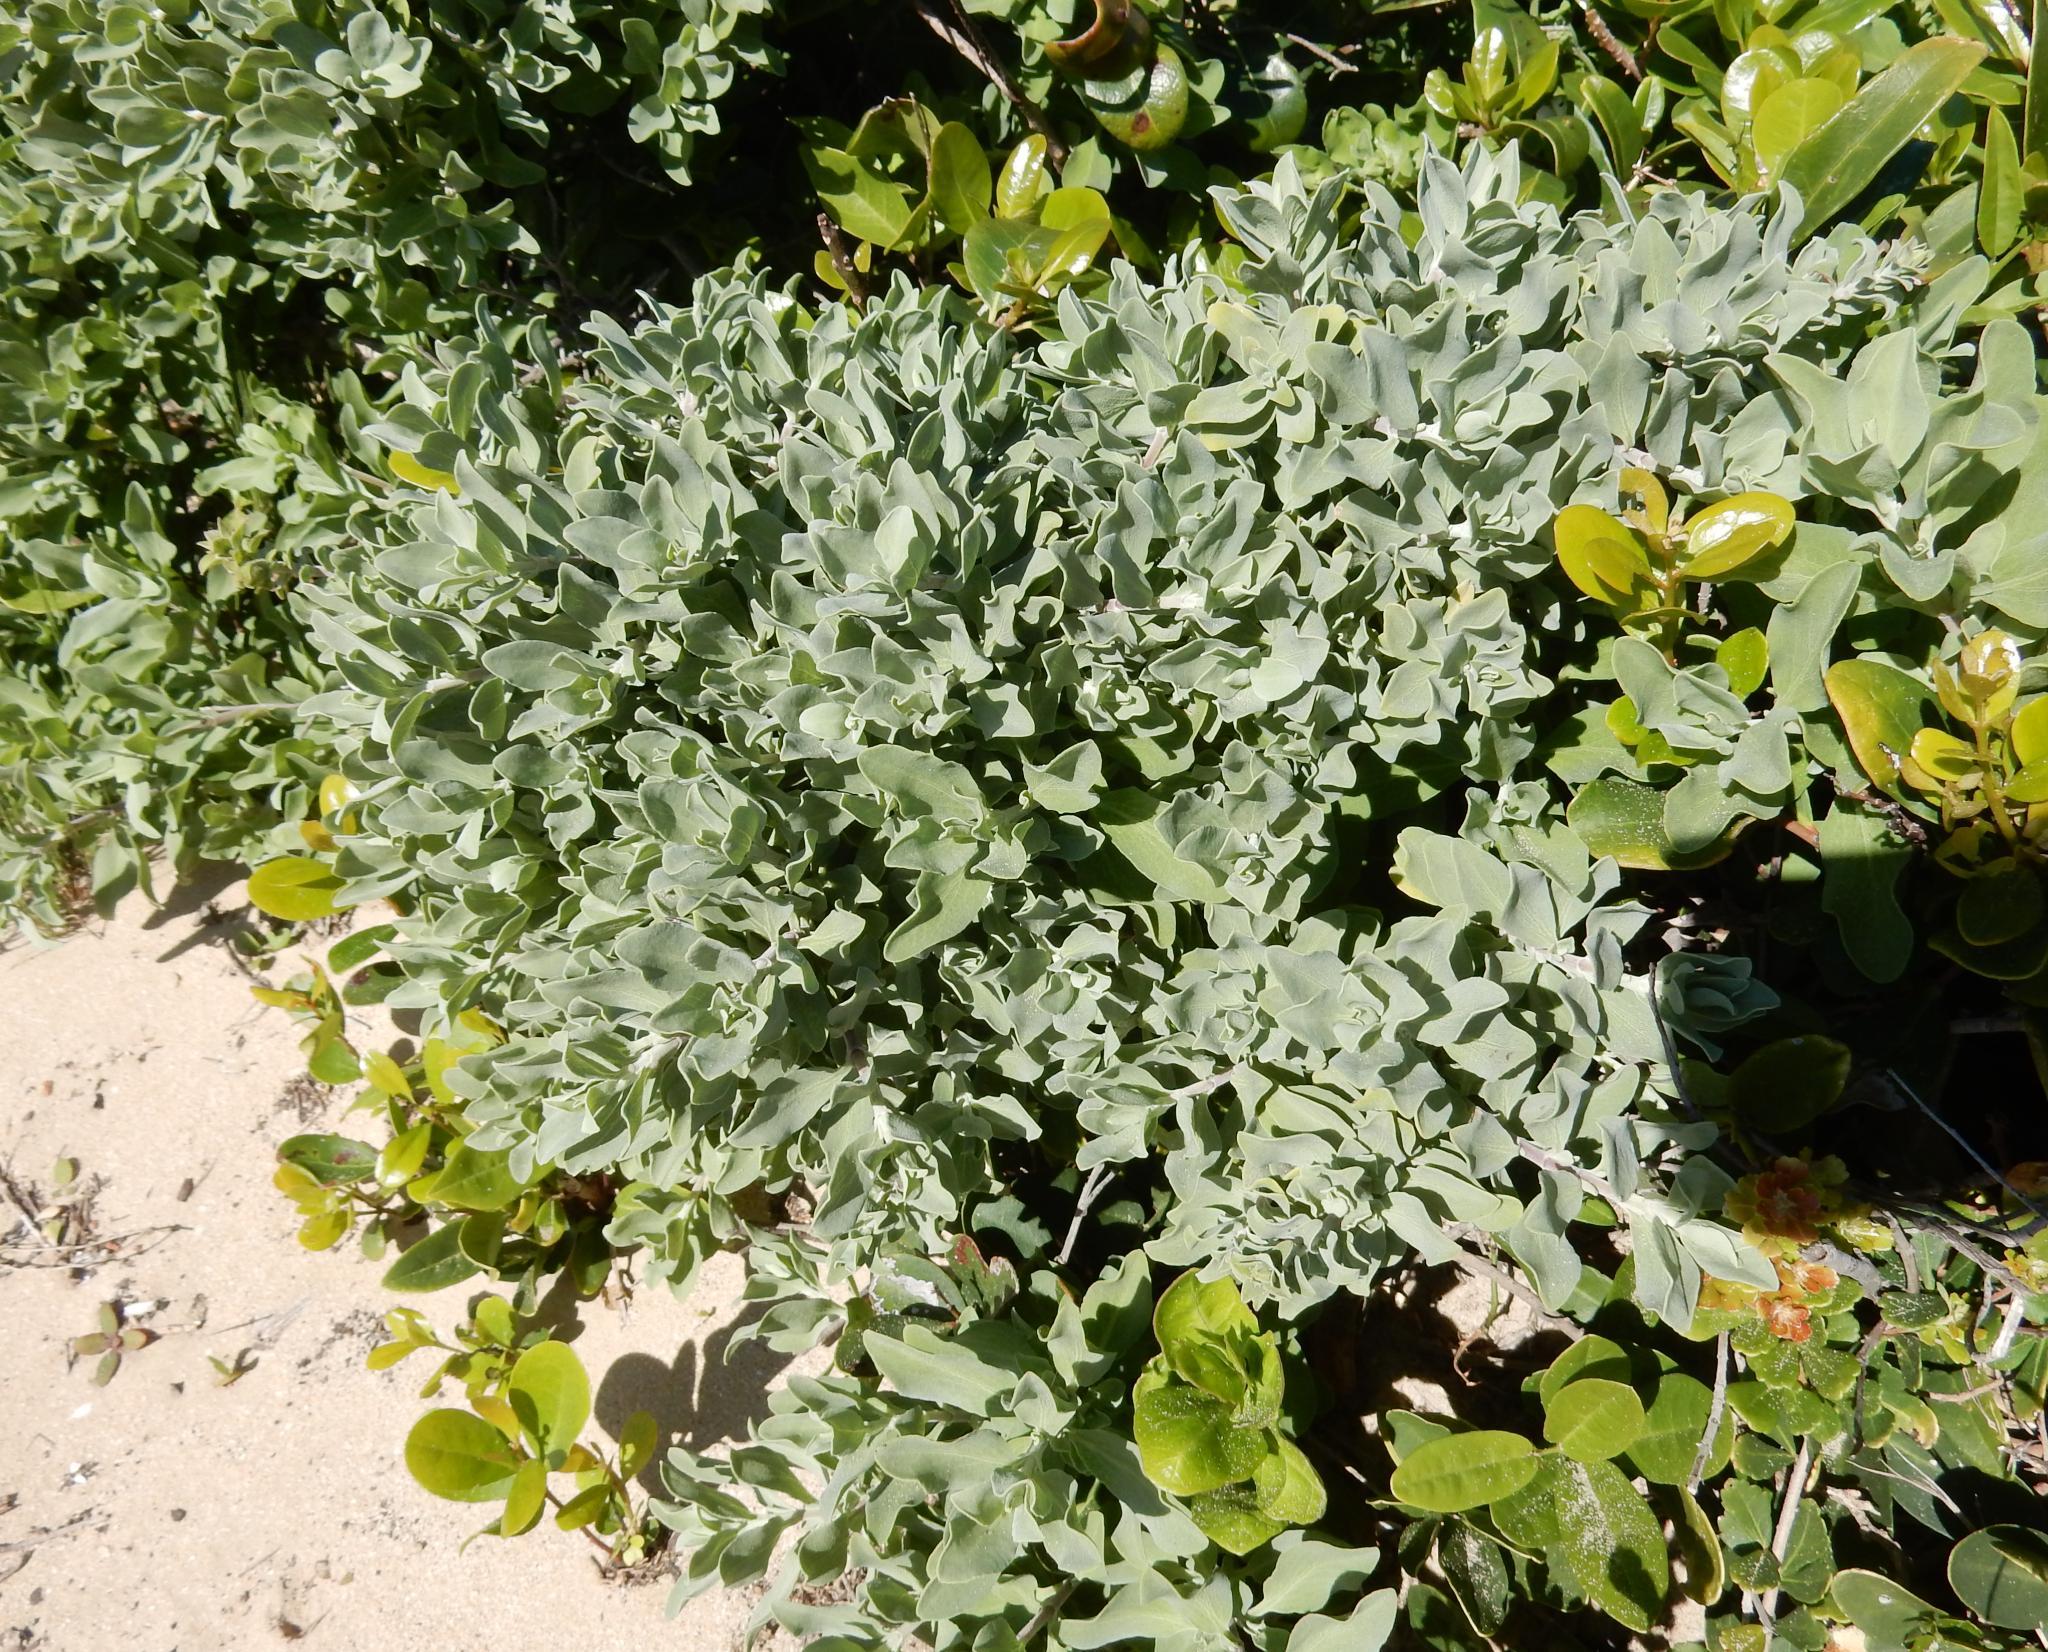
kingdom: Plantae
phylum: Tracheophyta
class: Magnoliopsida
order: Lamiales
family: Lamiaceae
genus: Salvia
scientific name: Salvia aurea
